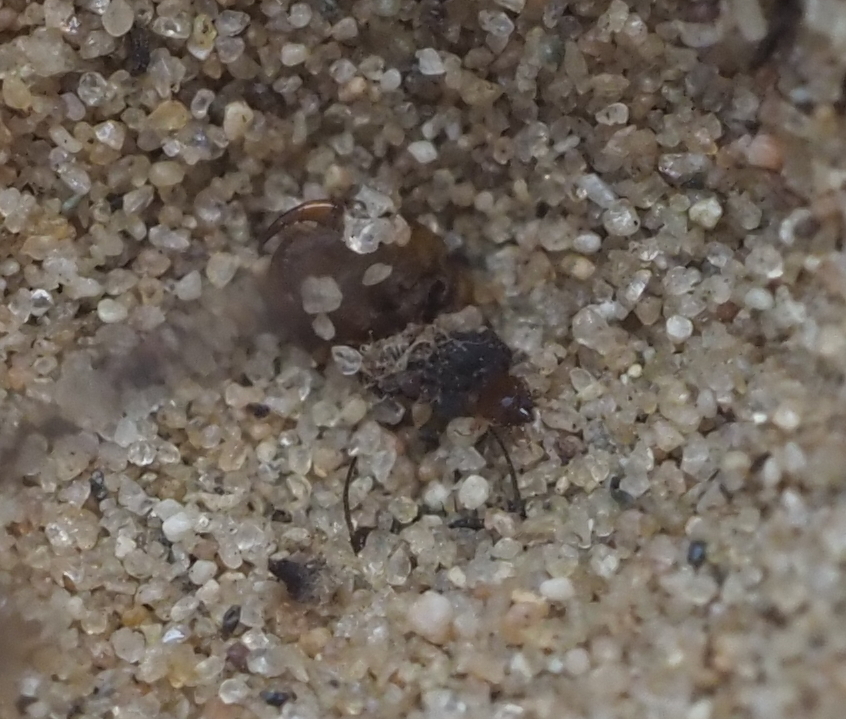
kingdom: Animalia
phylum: Arthropoda
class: Insecta
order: Neuroptera
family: Myrmeleontidae
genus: Myrmeleon
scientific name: Myrmeleon immaculatus
